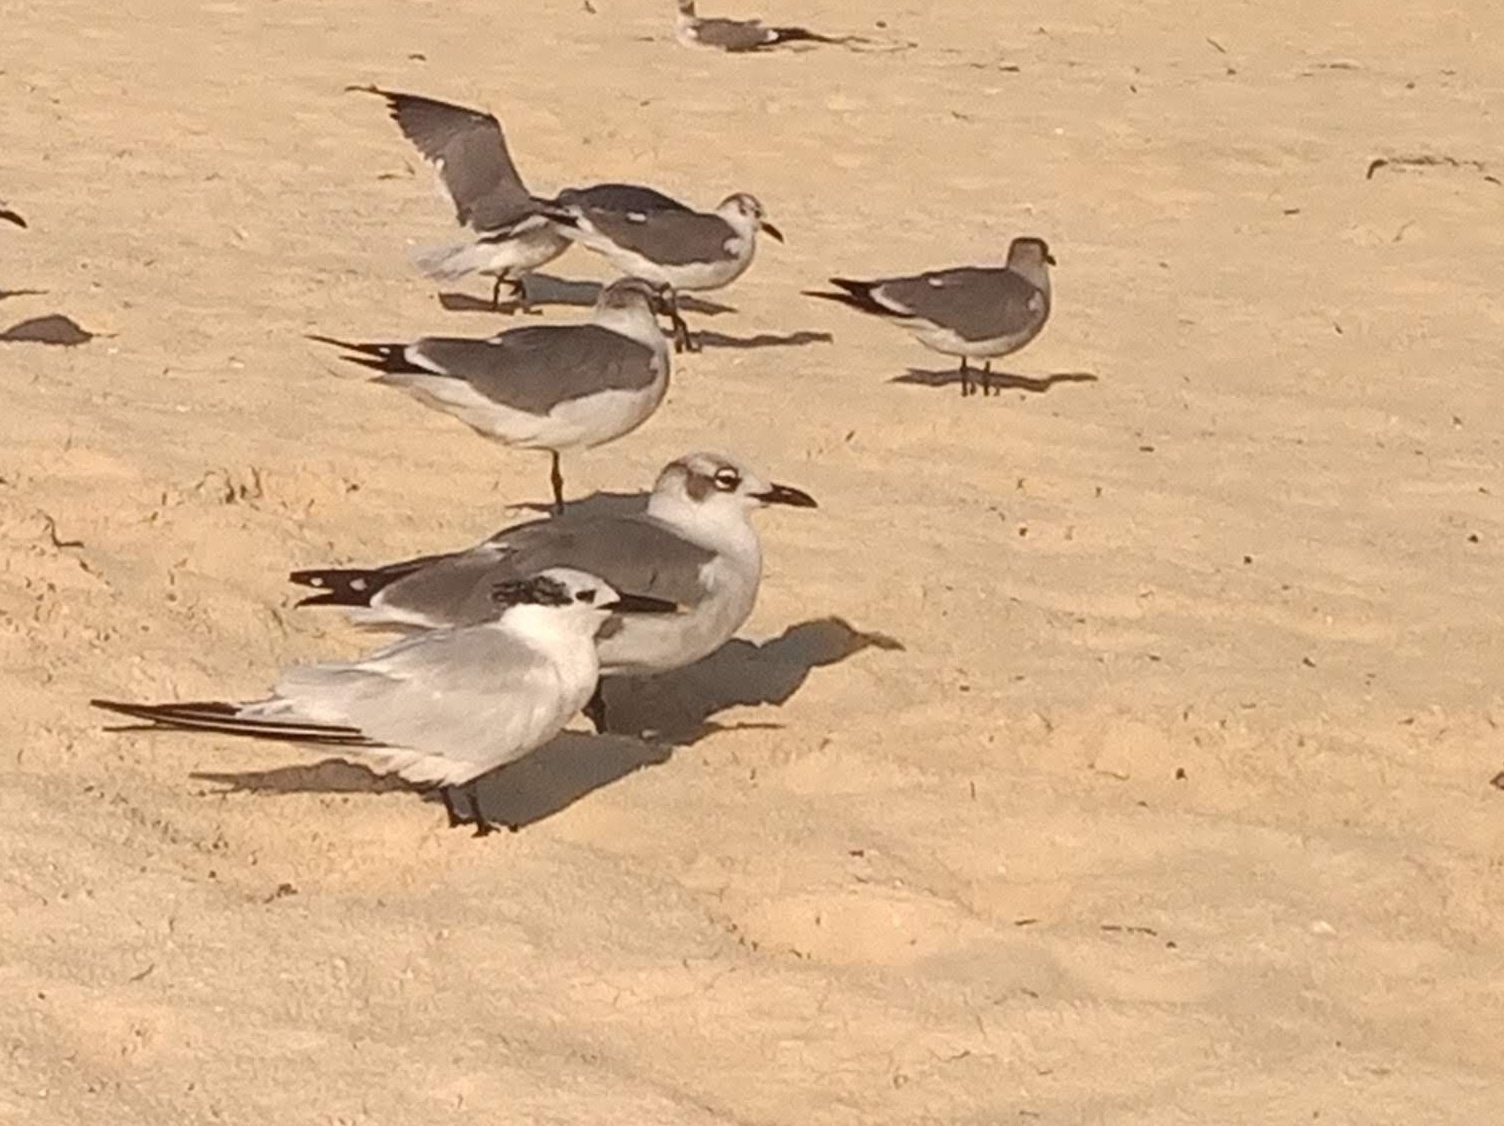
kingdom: Animalia
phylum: Chordata
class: Aves
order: Charadriiformes
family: Laridae
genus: Thalasseus
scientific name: Thalasseus sandvicensis
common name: Sandwich tern
